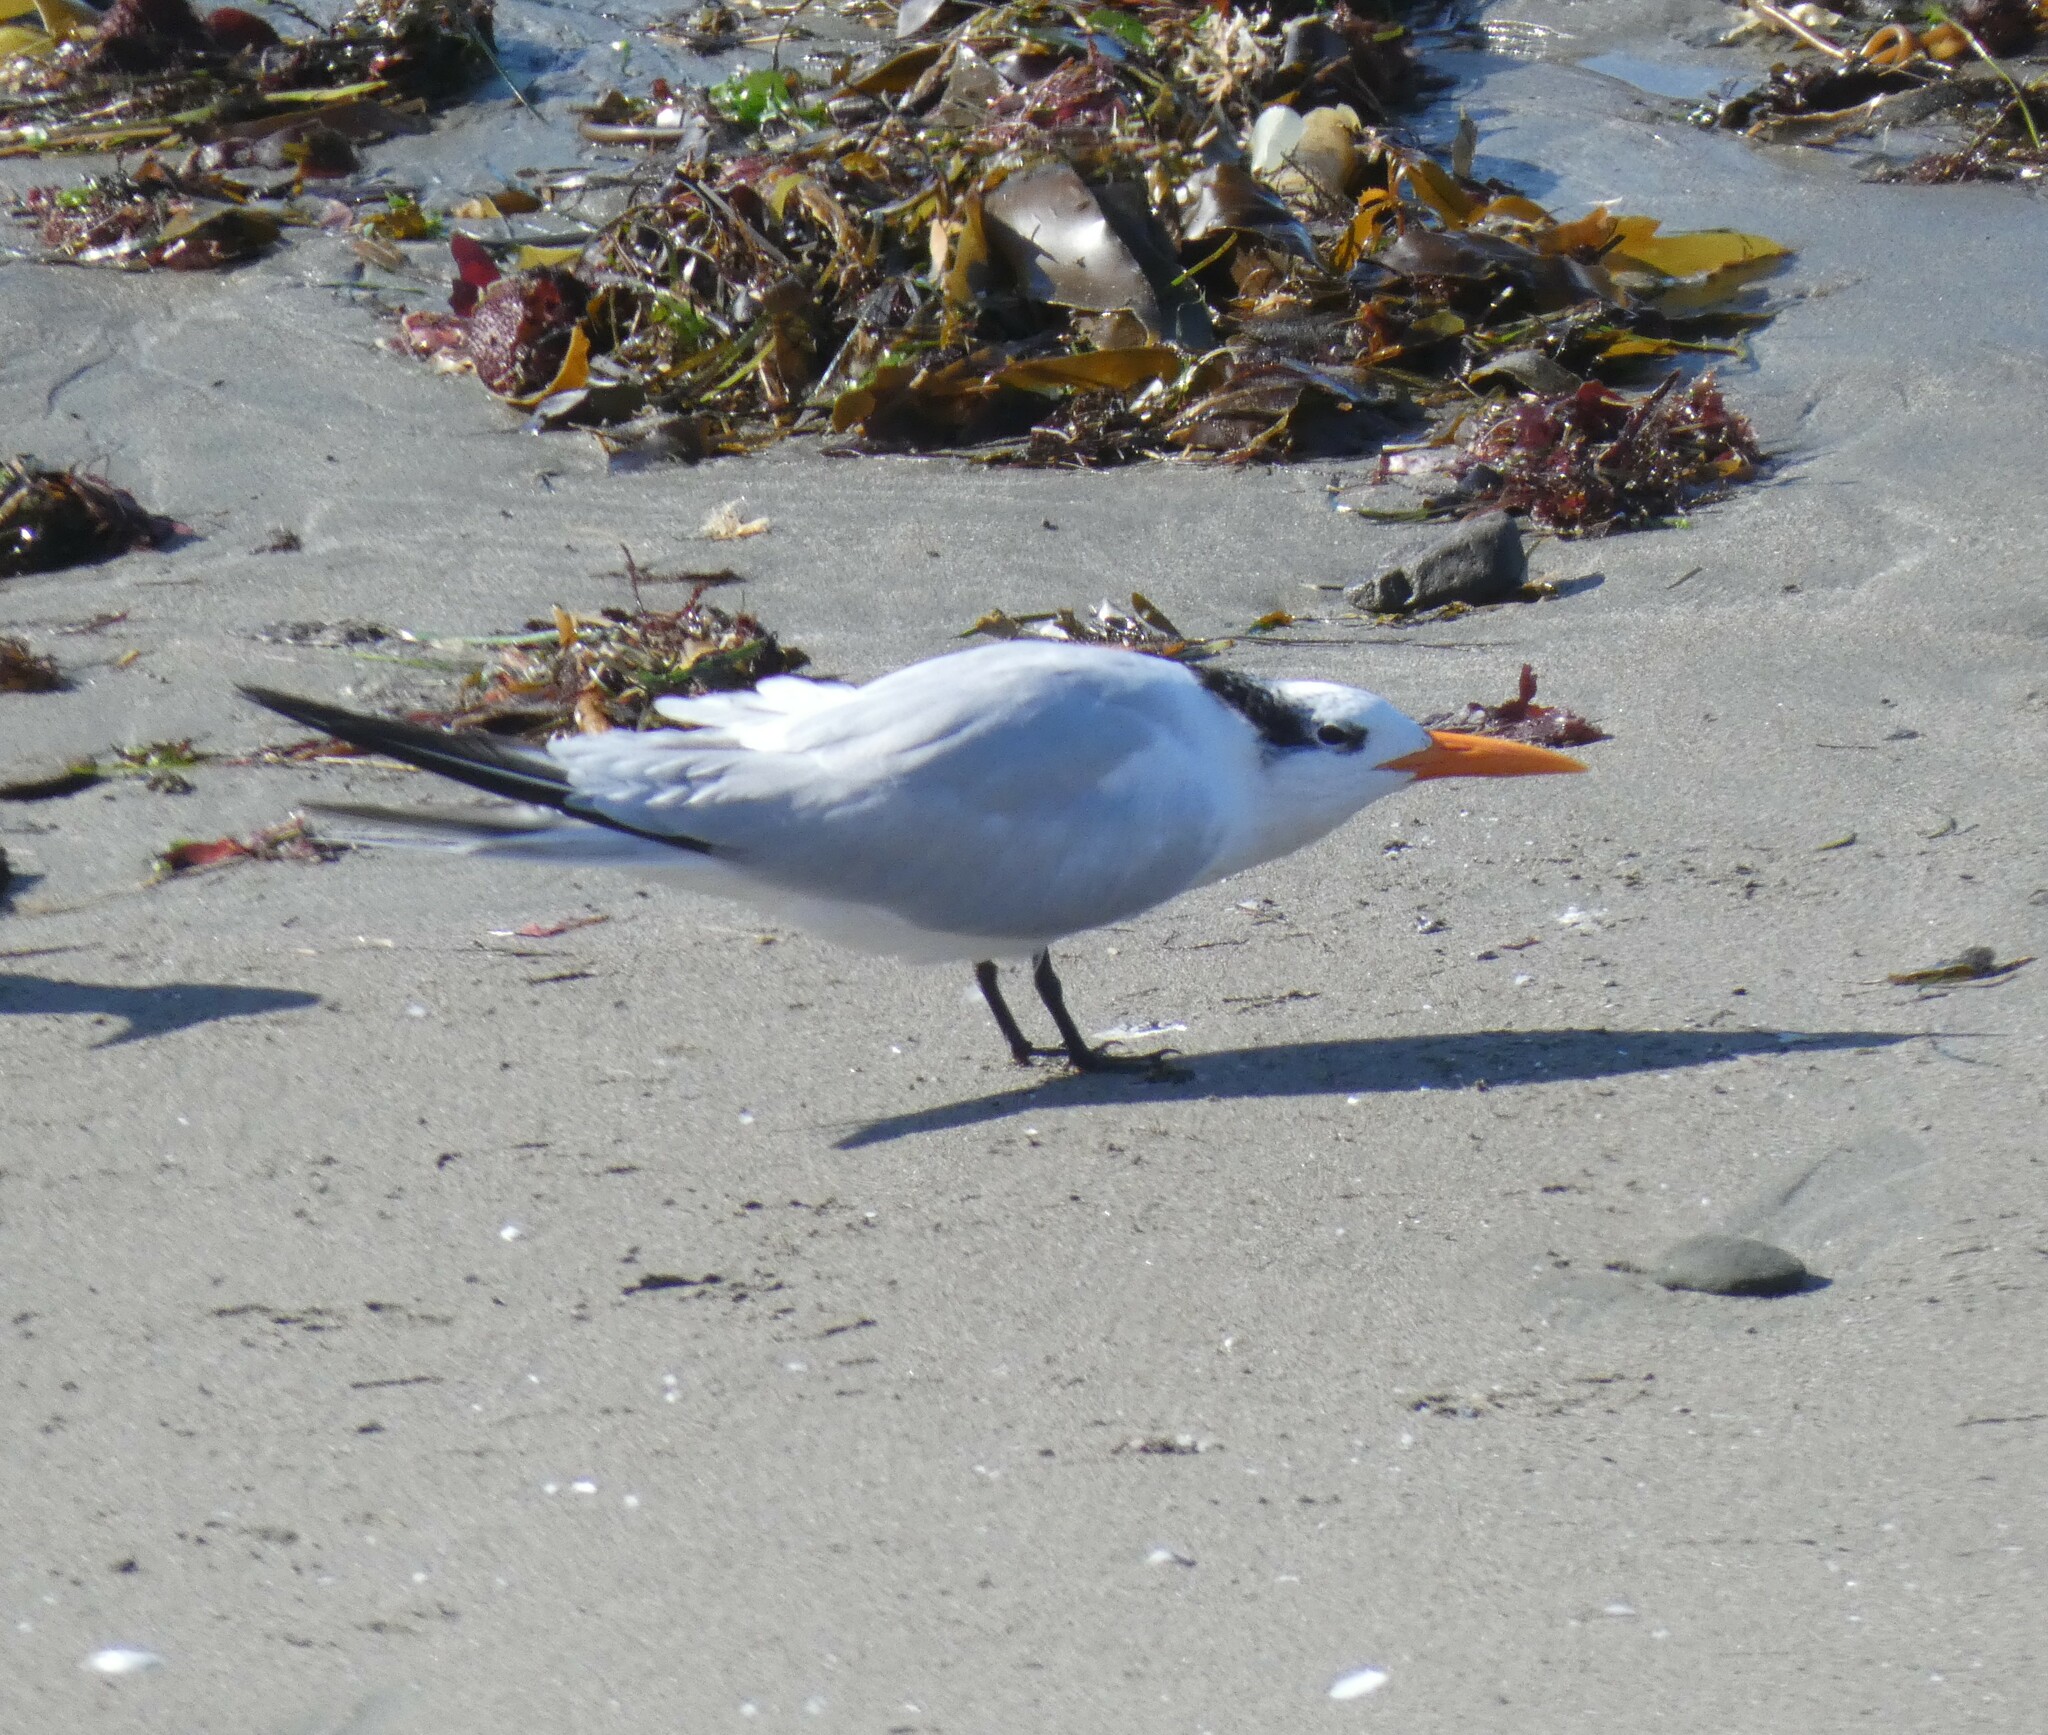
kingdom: Animalia
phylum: Chordata
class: Aves
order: Charadriiformes
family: Laridae
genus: Thalasseus
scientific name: Thalasseus maximus
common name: Royal tern
